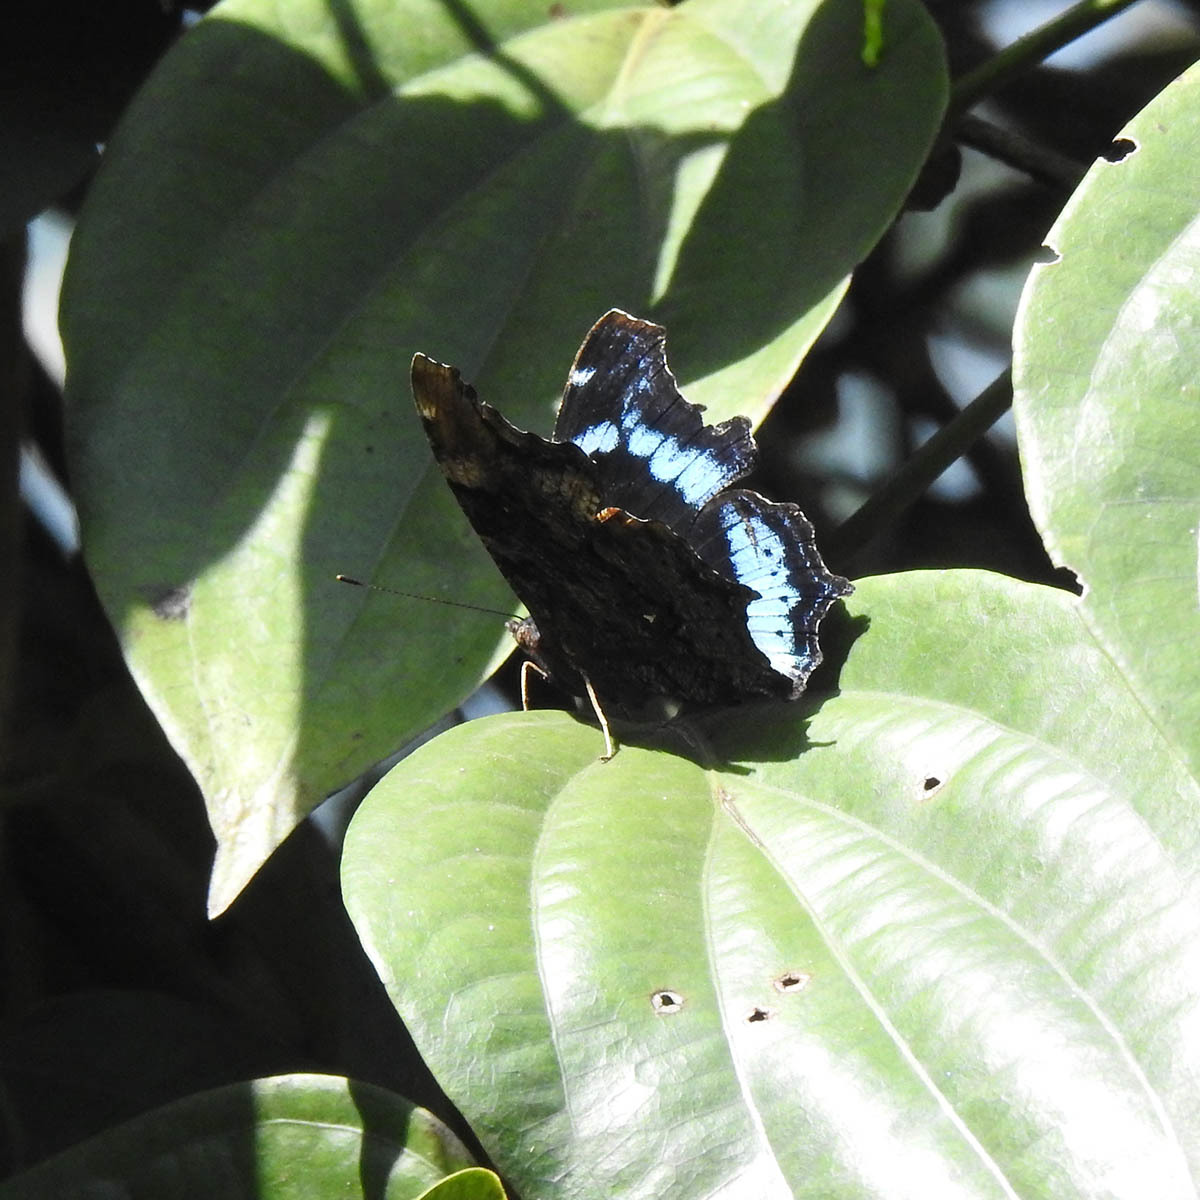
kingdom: Animalia
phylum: Arthropoda
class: Insecta
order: Lepidoptera
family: Nymphalidae
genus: Vanessa
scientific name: Vanessa Kaniska canace
